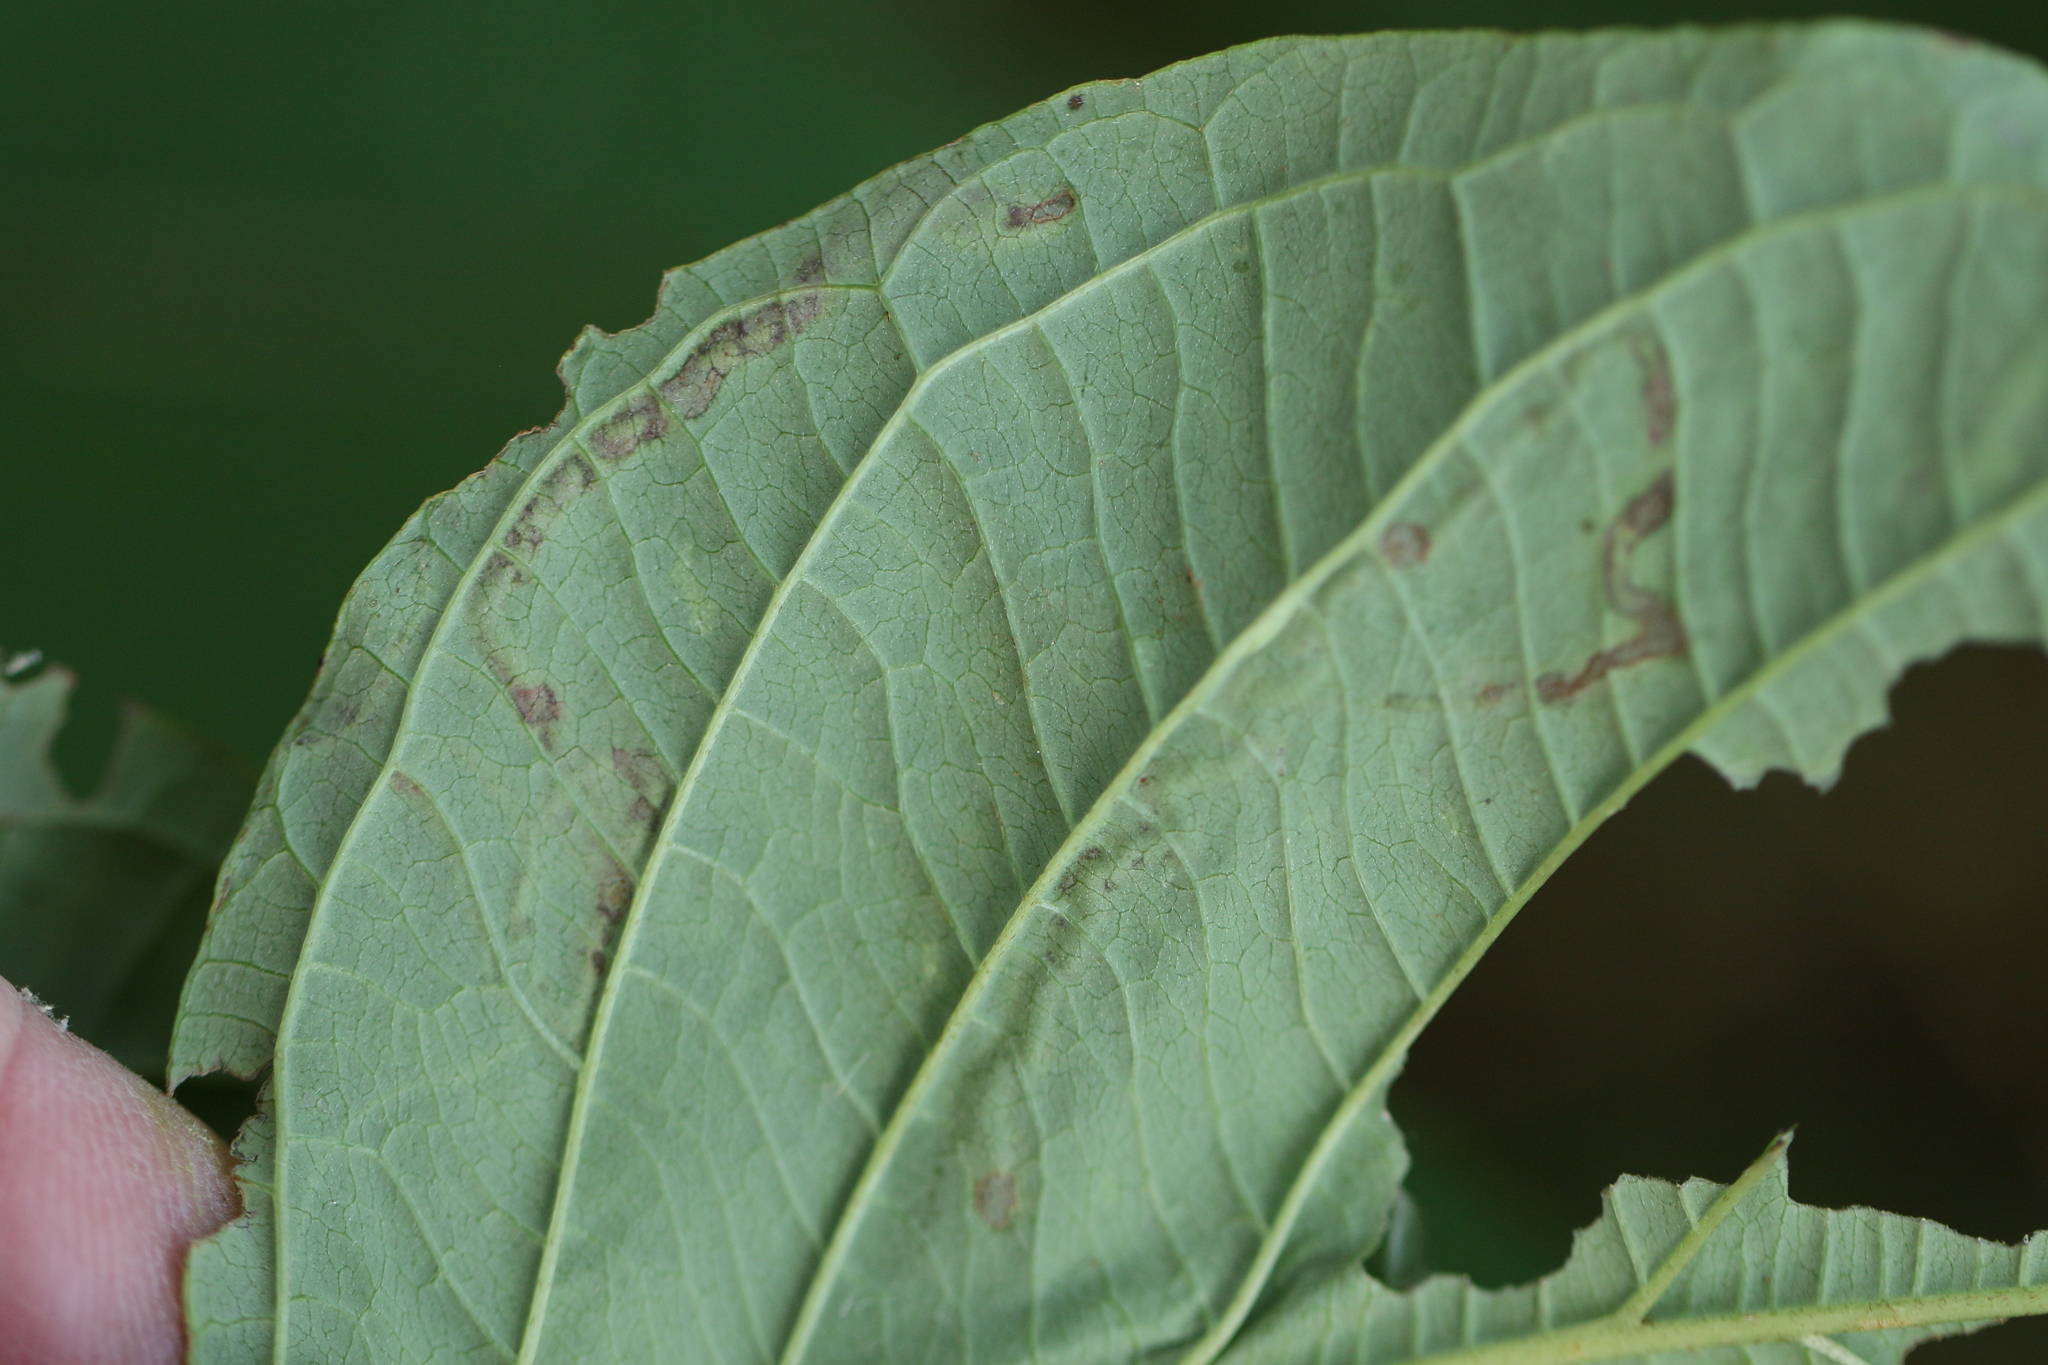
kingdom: Animalia
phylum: Arthropoda
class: Insecta
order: Diptera
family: Agromyzidae
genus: Phytomyza
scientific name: Phytomyza agromyzina
